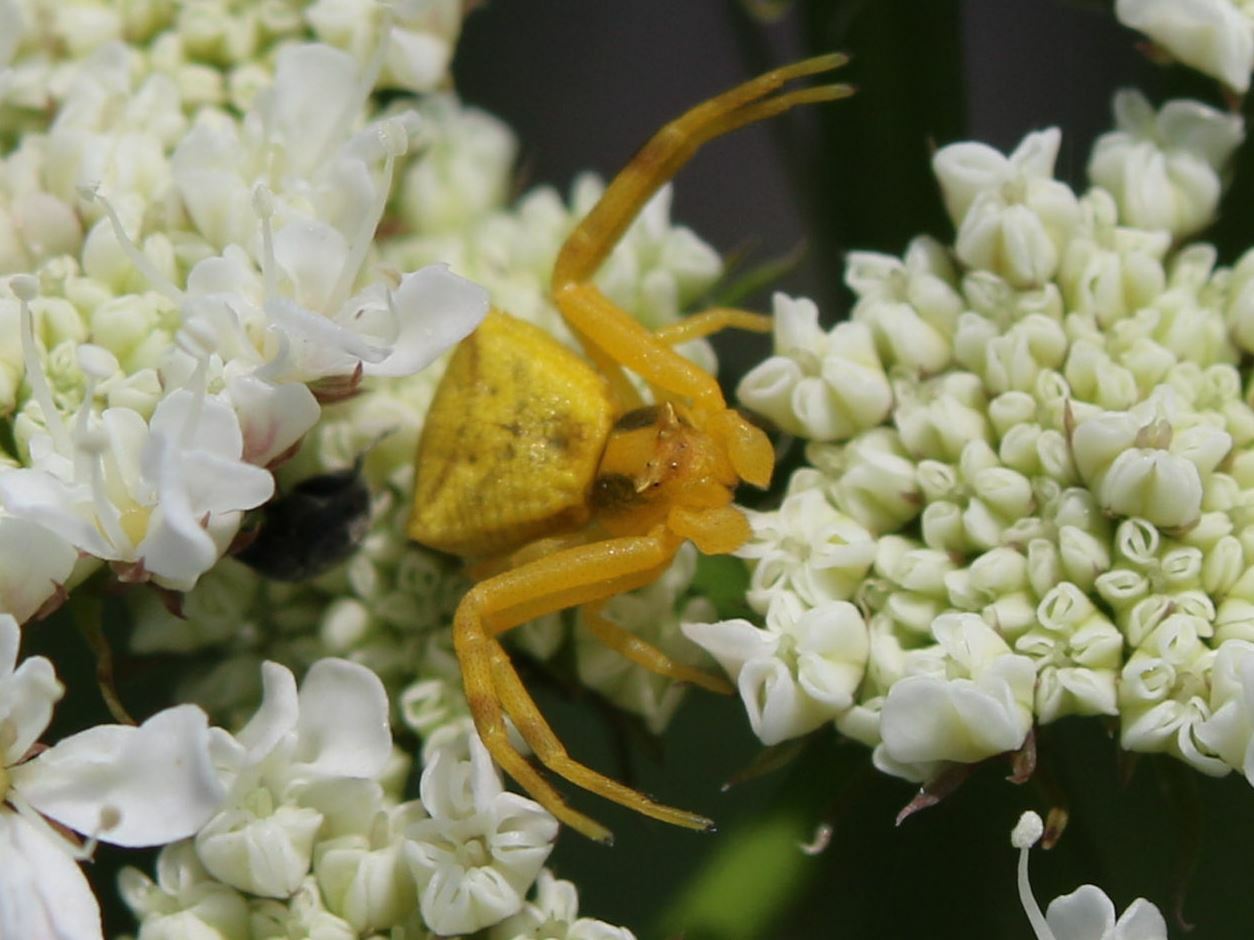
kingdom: Animalia
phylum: Arthropoda
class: Arachnida
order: Araneae
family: Thomisidae
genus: Thomisus
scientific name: Thomisus onustus
